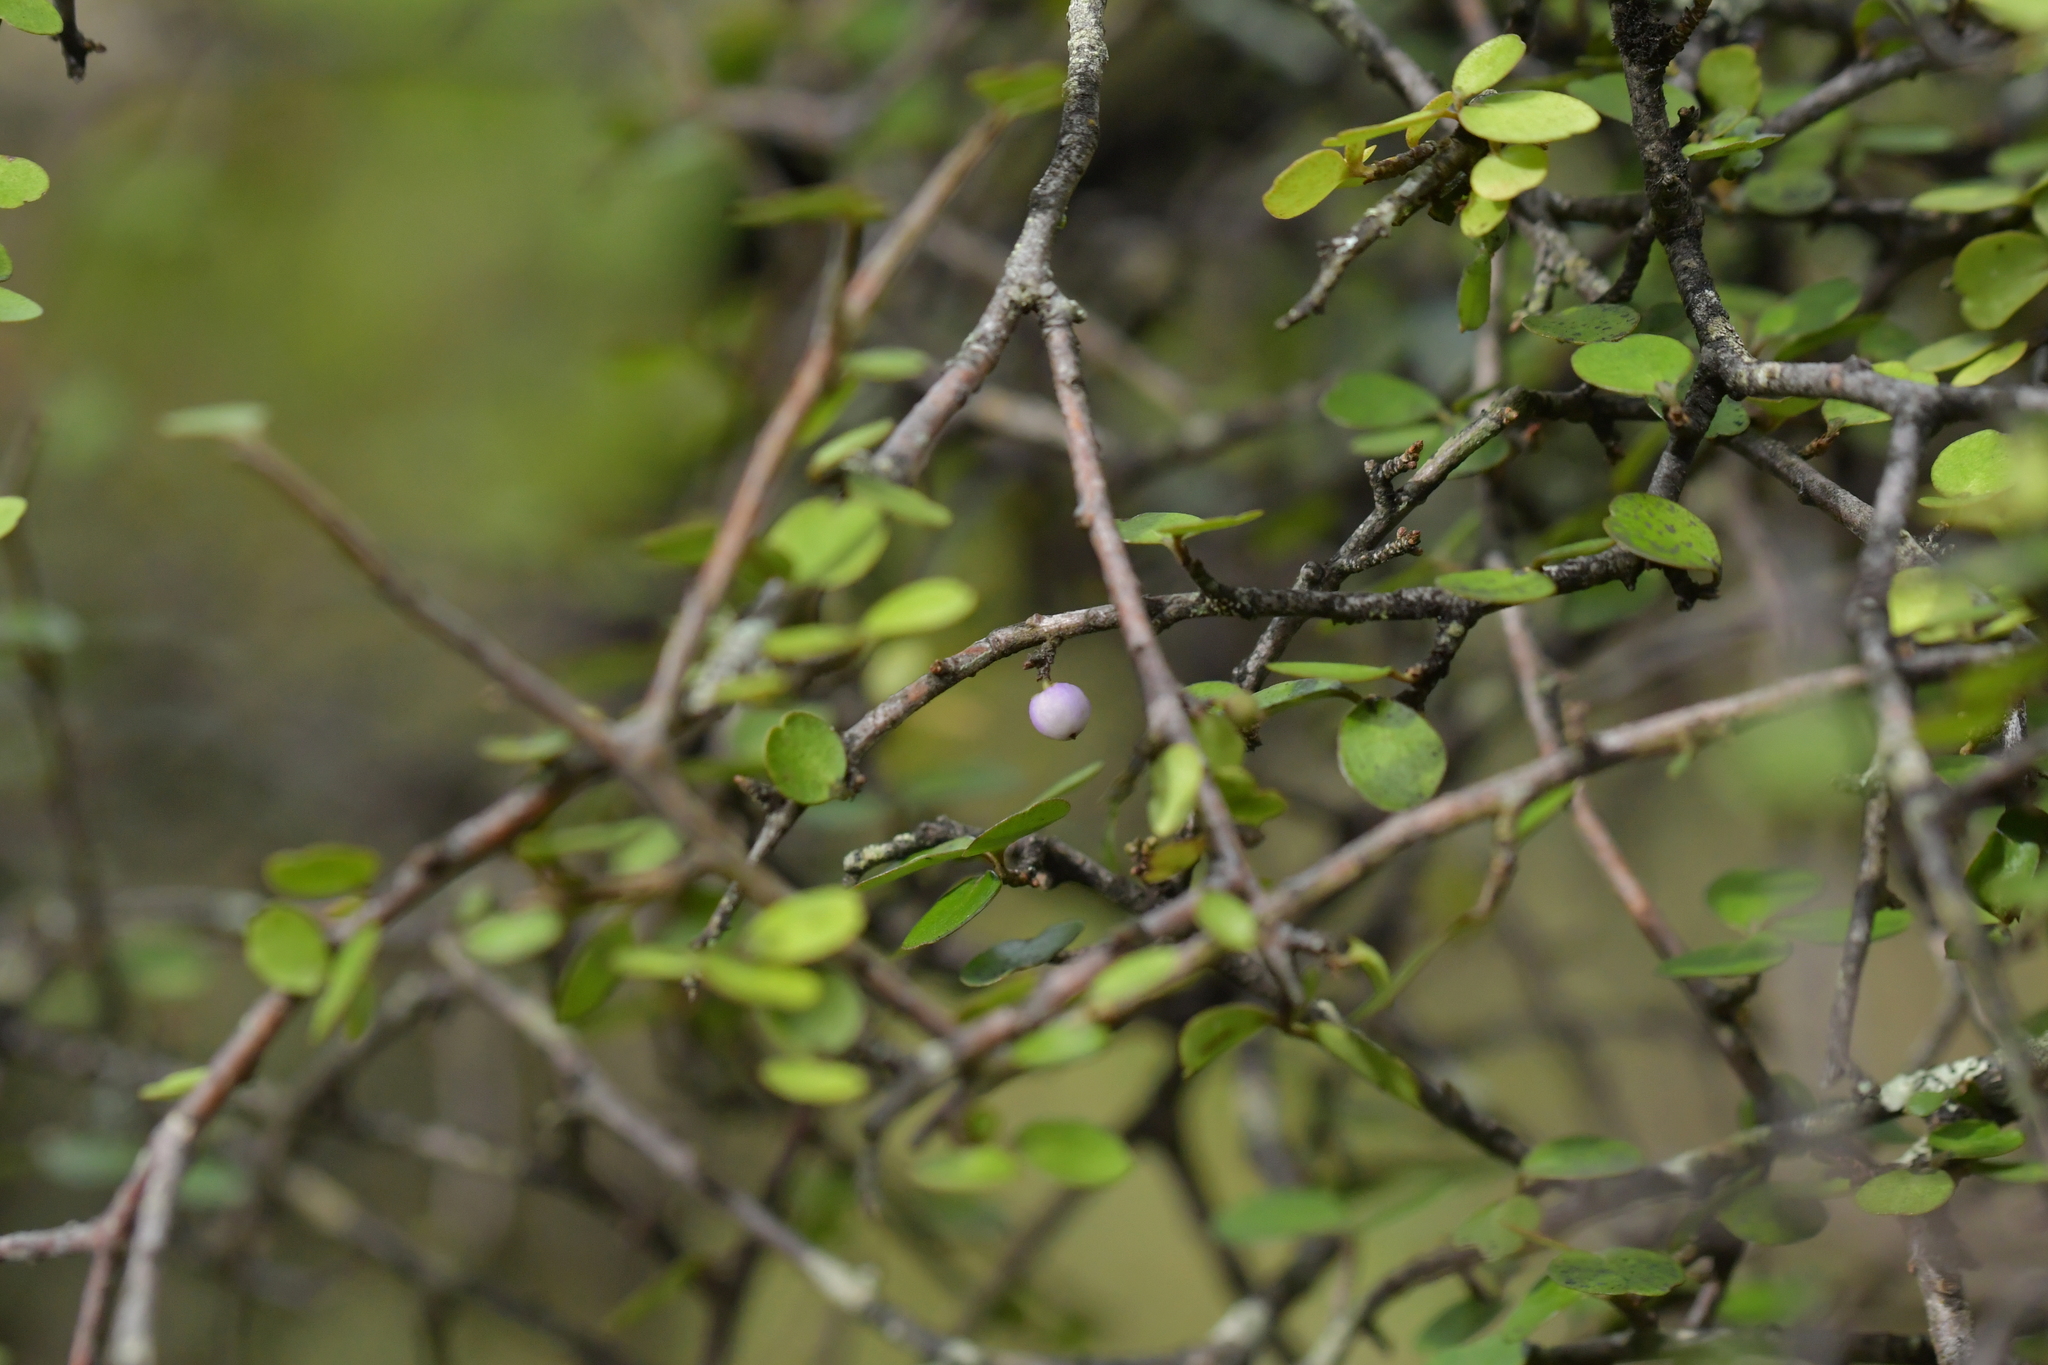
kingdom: Plantae
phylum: Tracheophyta
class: Magnoliopsida
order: Ericales
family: Primulaceae
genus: Myrsine
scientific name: Myrsine divaricata
